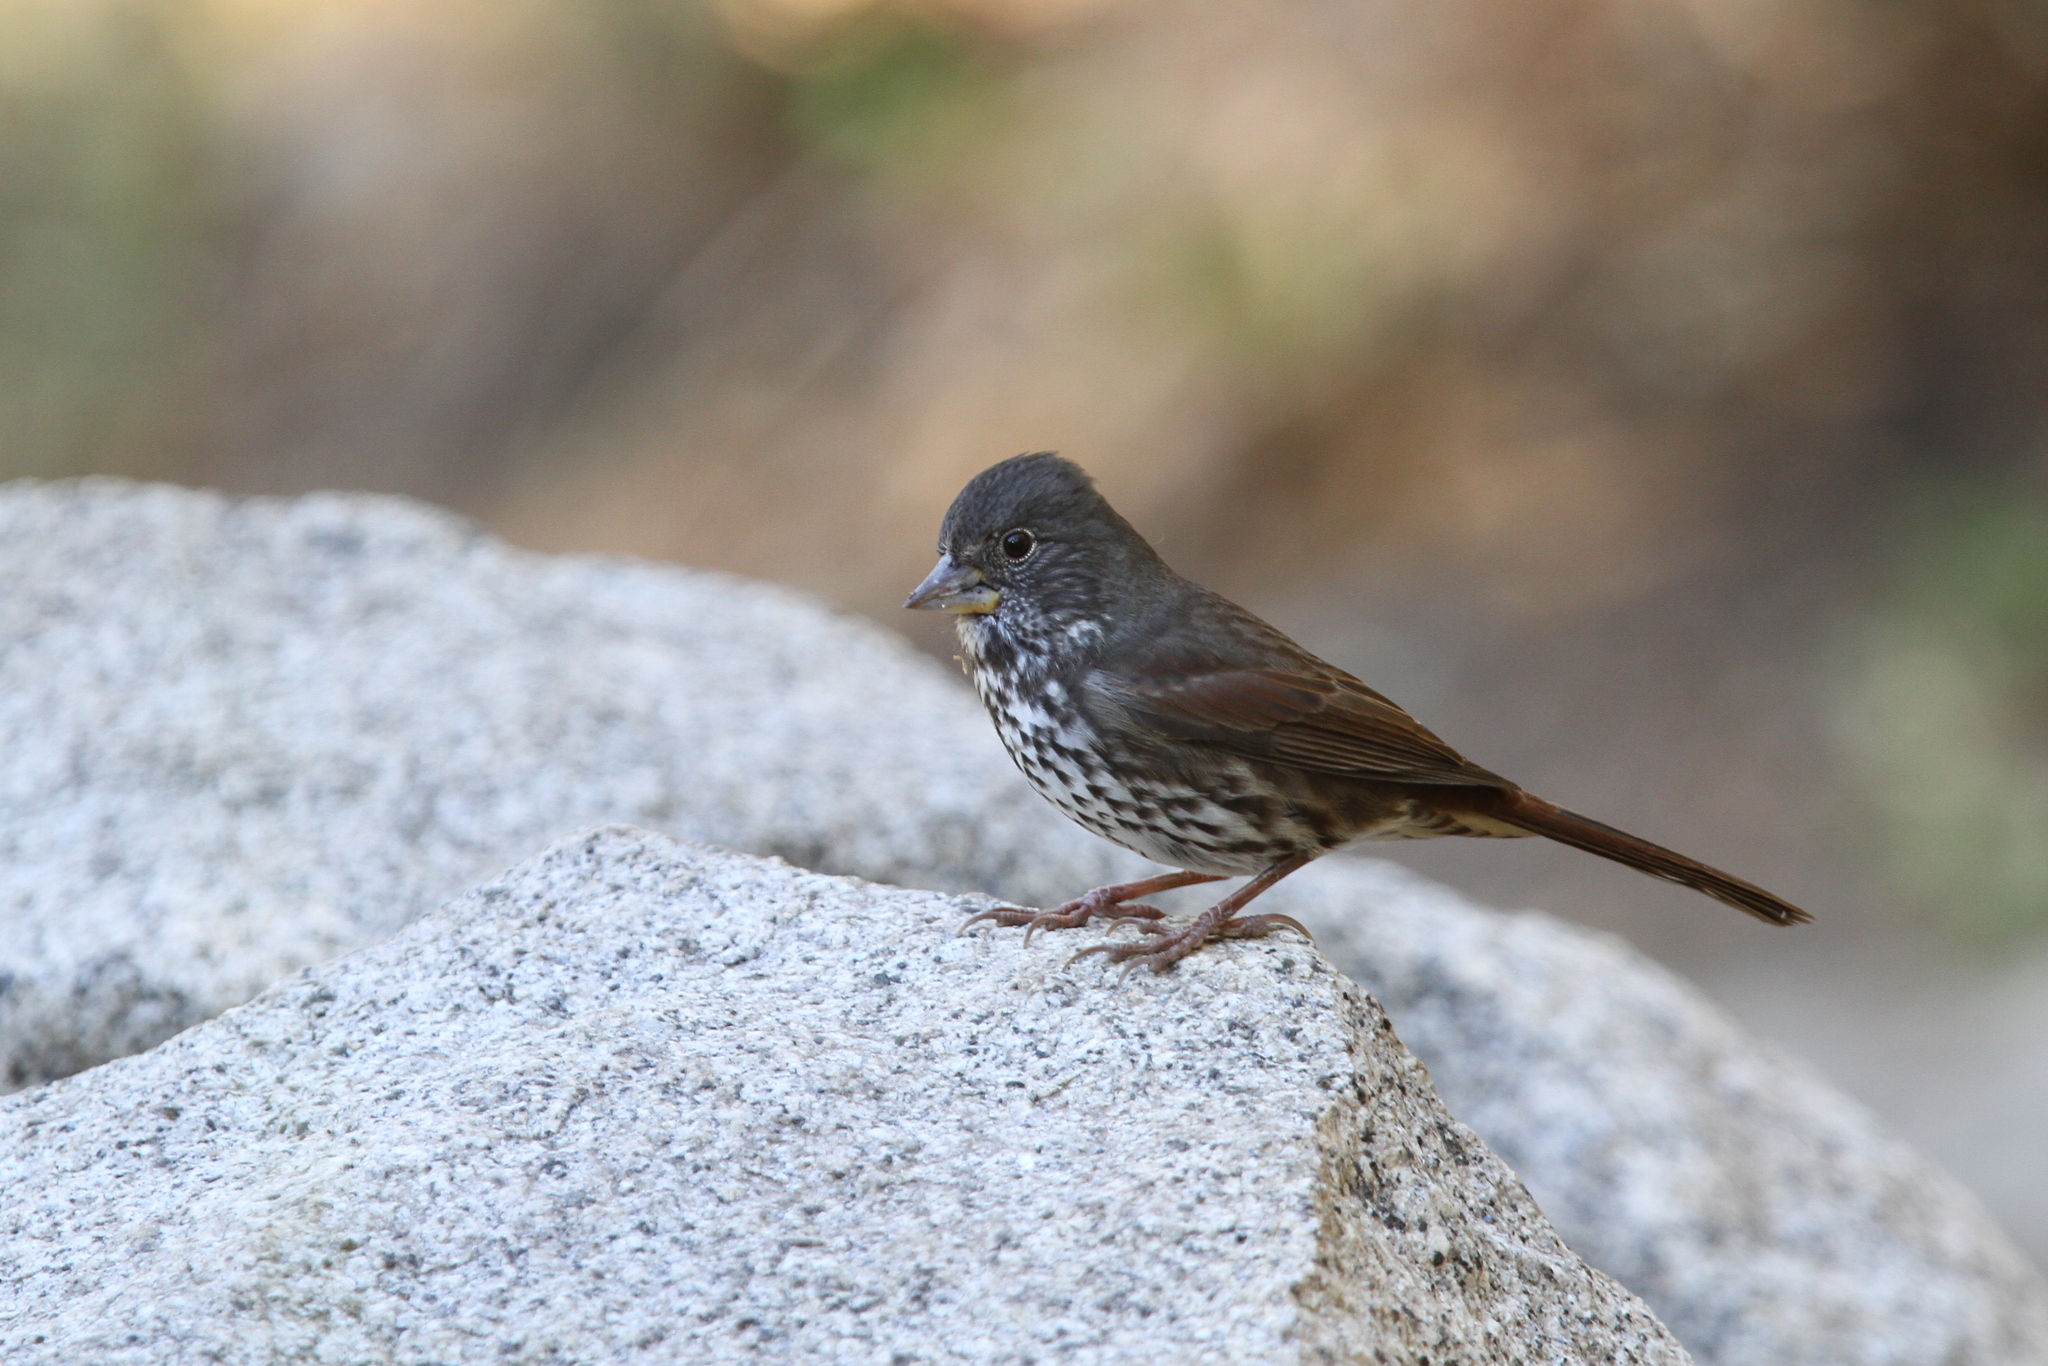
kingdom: Animalia
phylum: Chordata
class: Aves
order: Passeriformes
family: Passerellidae
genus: Passerella
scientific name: Passerella iliaca
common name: Fox sparrow
